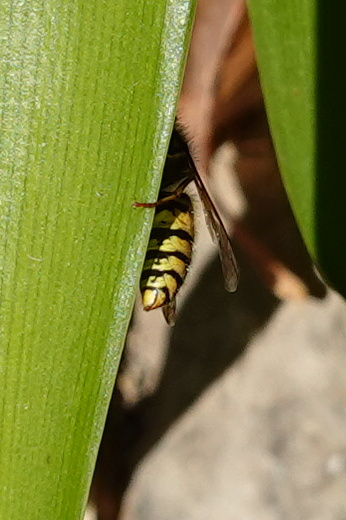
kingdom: Animalia
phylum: Arthropoda
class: Insecta
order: Hymenoptera
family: Vespidae
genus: Vespula
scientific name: Vespula
